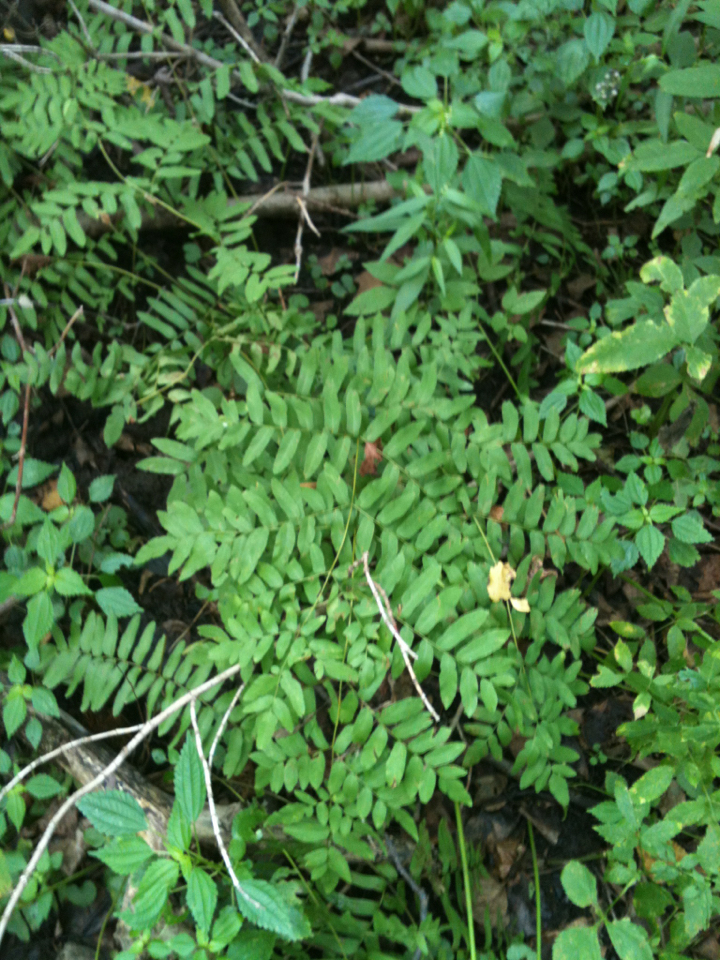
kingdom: Plantae
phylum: Tracheophyta
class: Polypodiopsida
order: Osmundales
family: Osmundaceae
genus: Osmunda
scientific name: Osmunda spectabilis
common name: American royal fern
